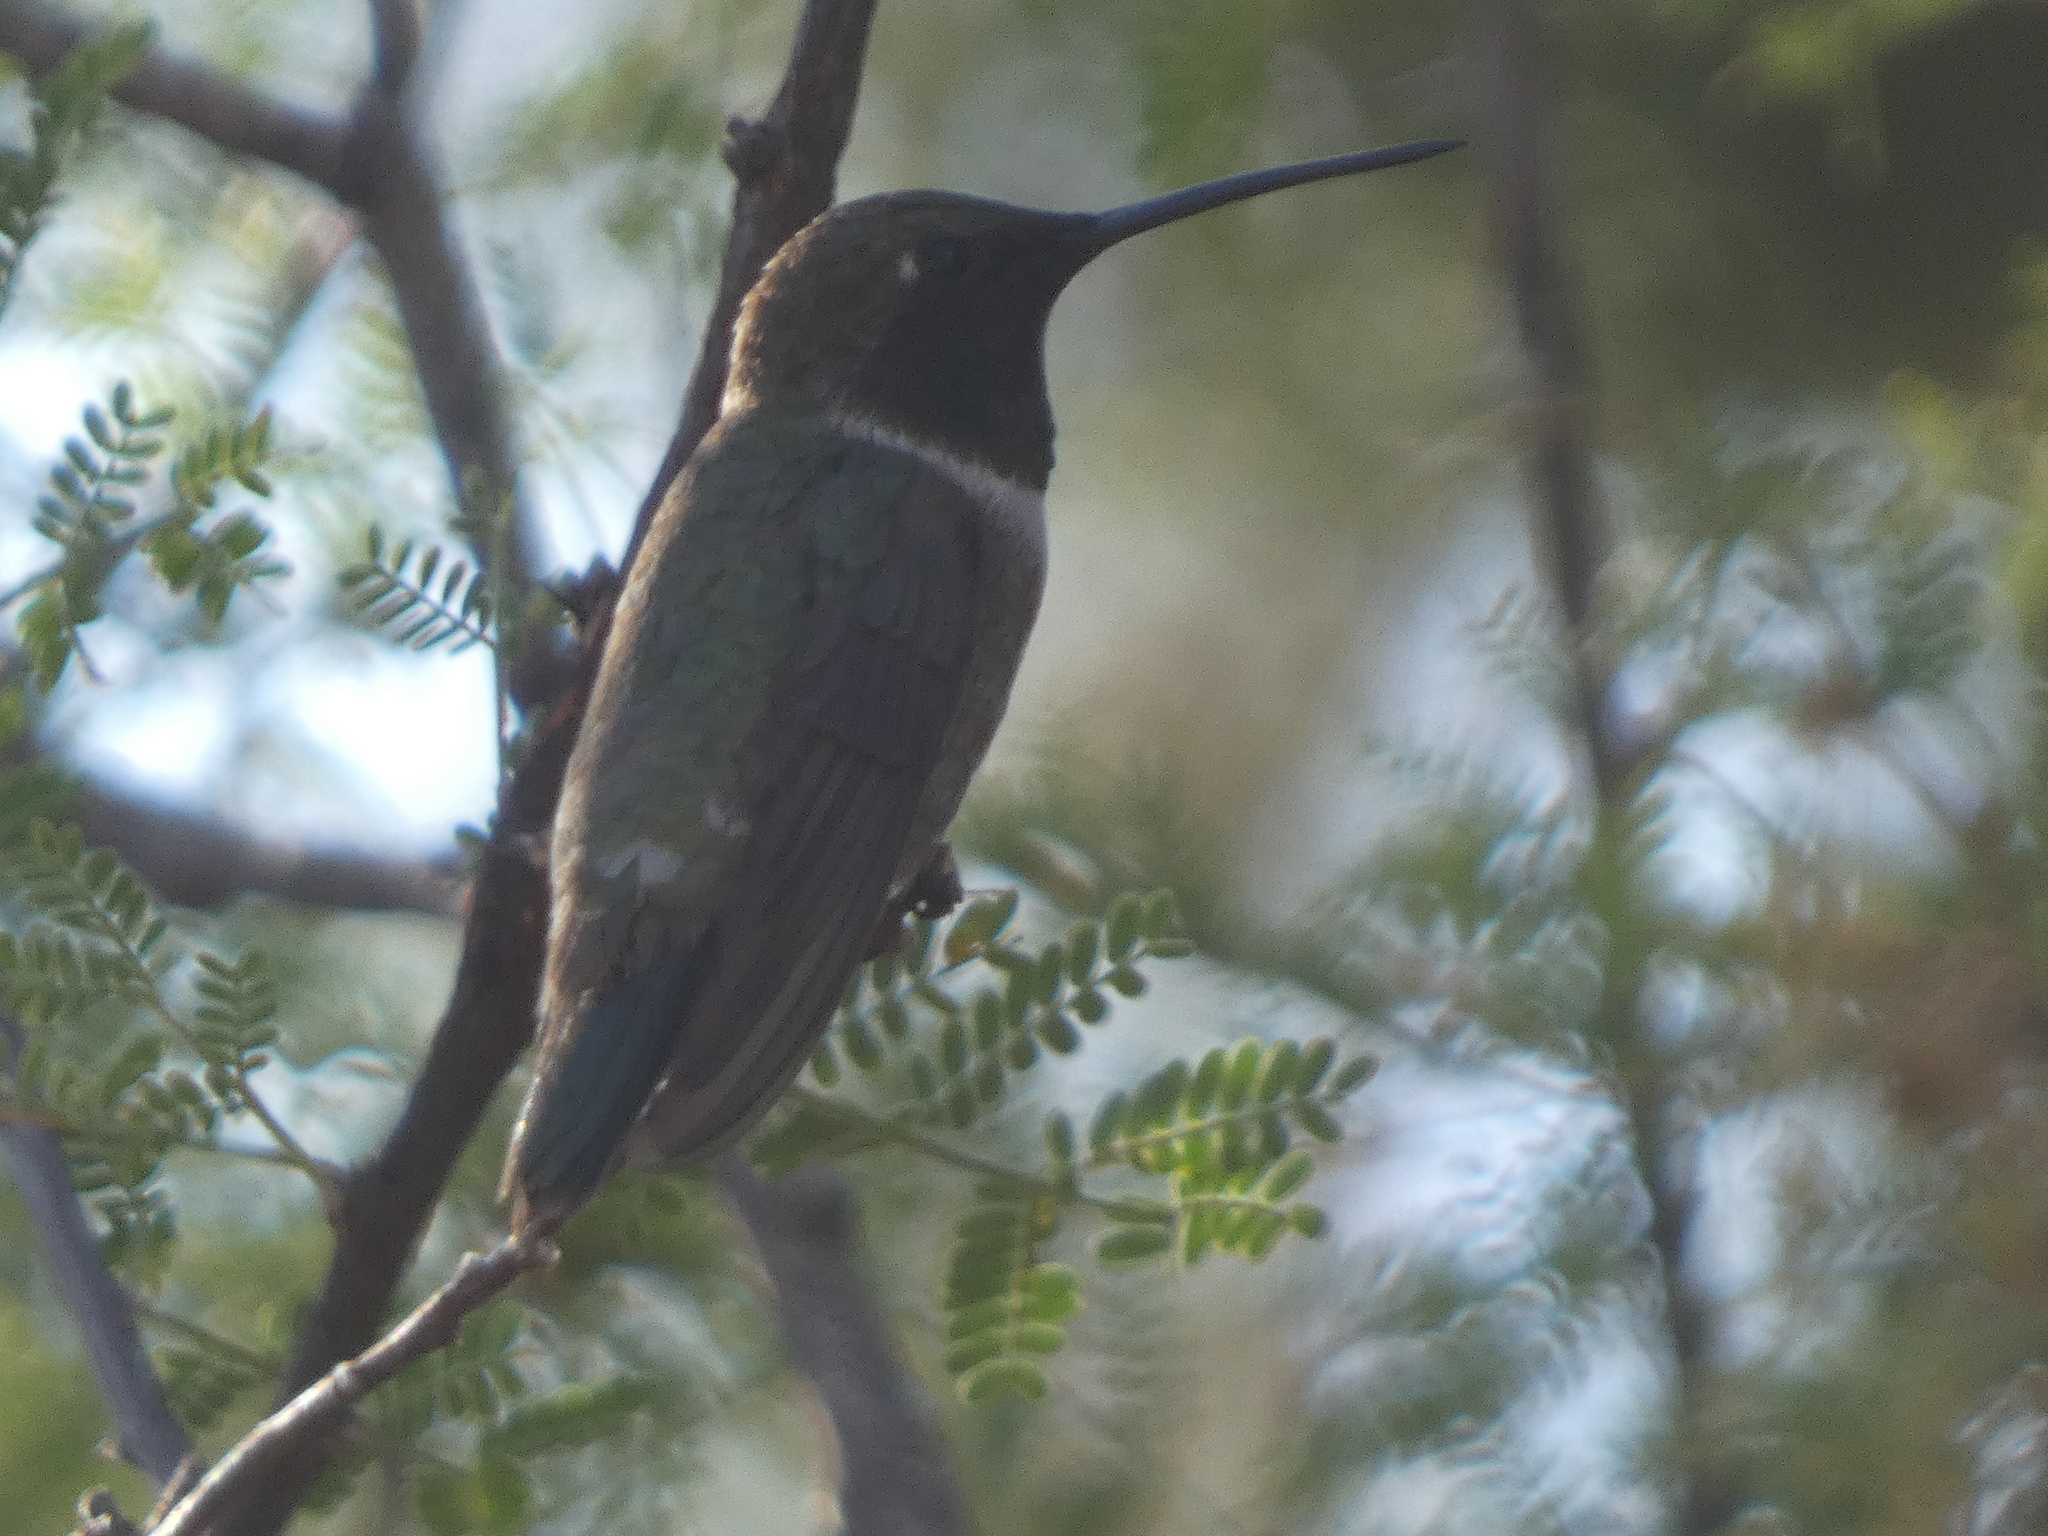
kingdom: Animalia
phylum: Chordata
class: Aves
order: Apodiformes
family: Trochilidae
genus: Archilochus
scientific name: Archilochus alexandri
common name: Black-chinned hummingbird
